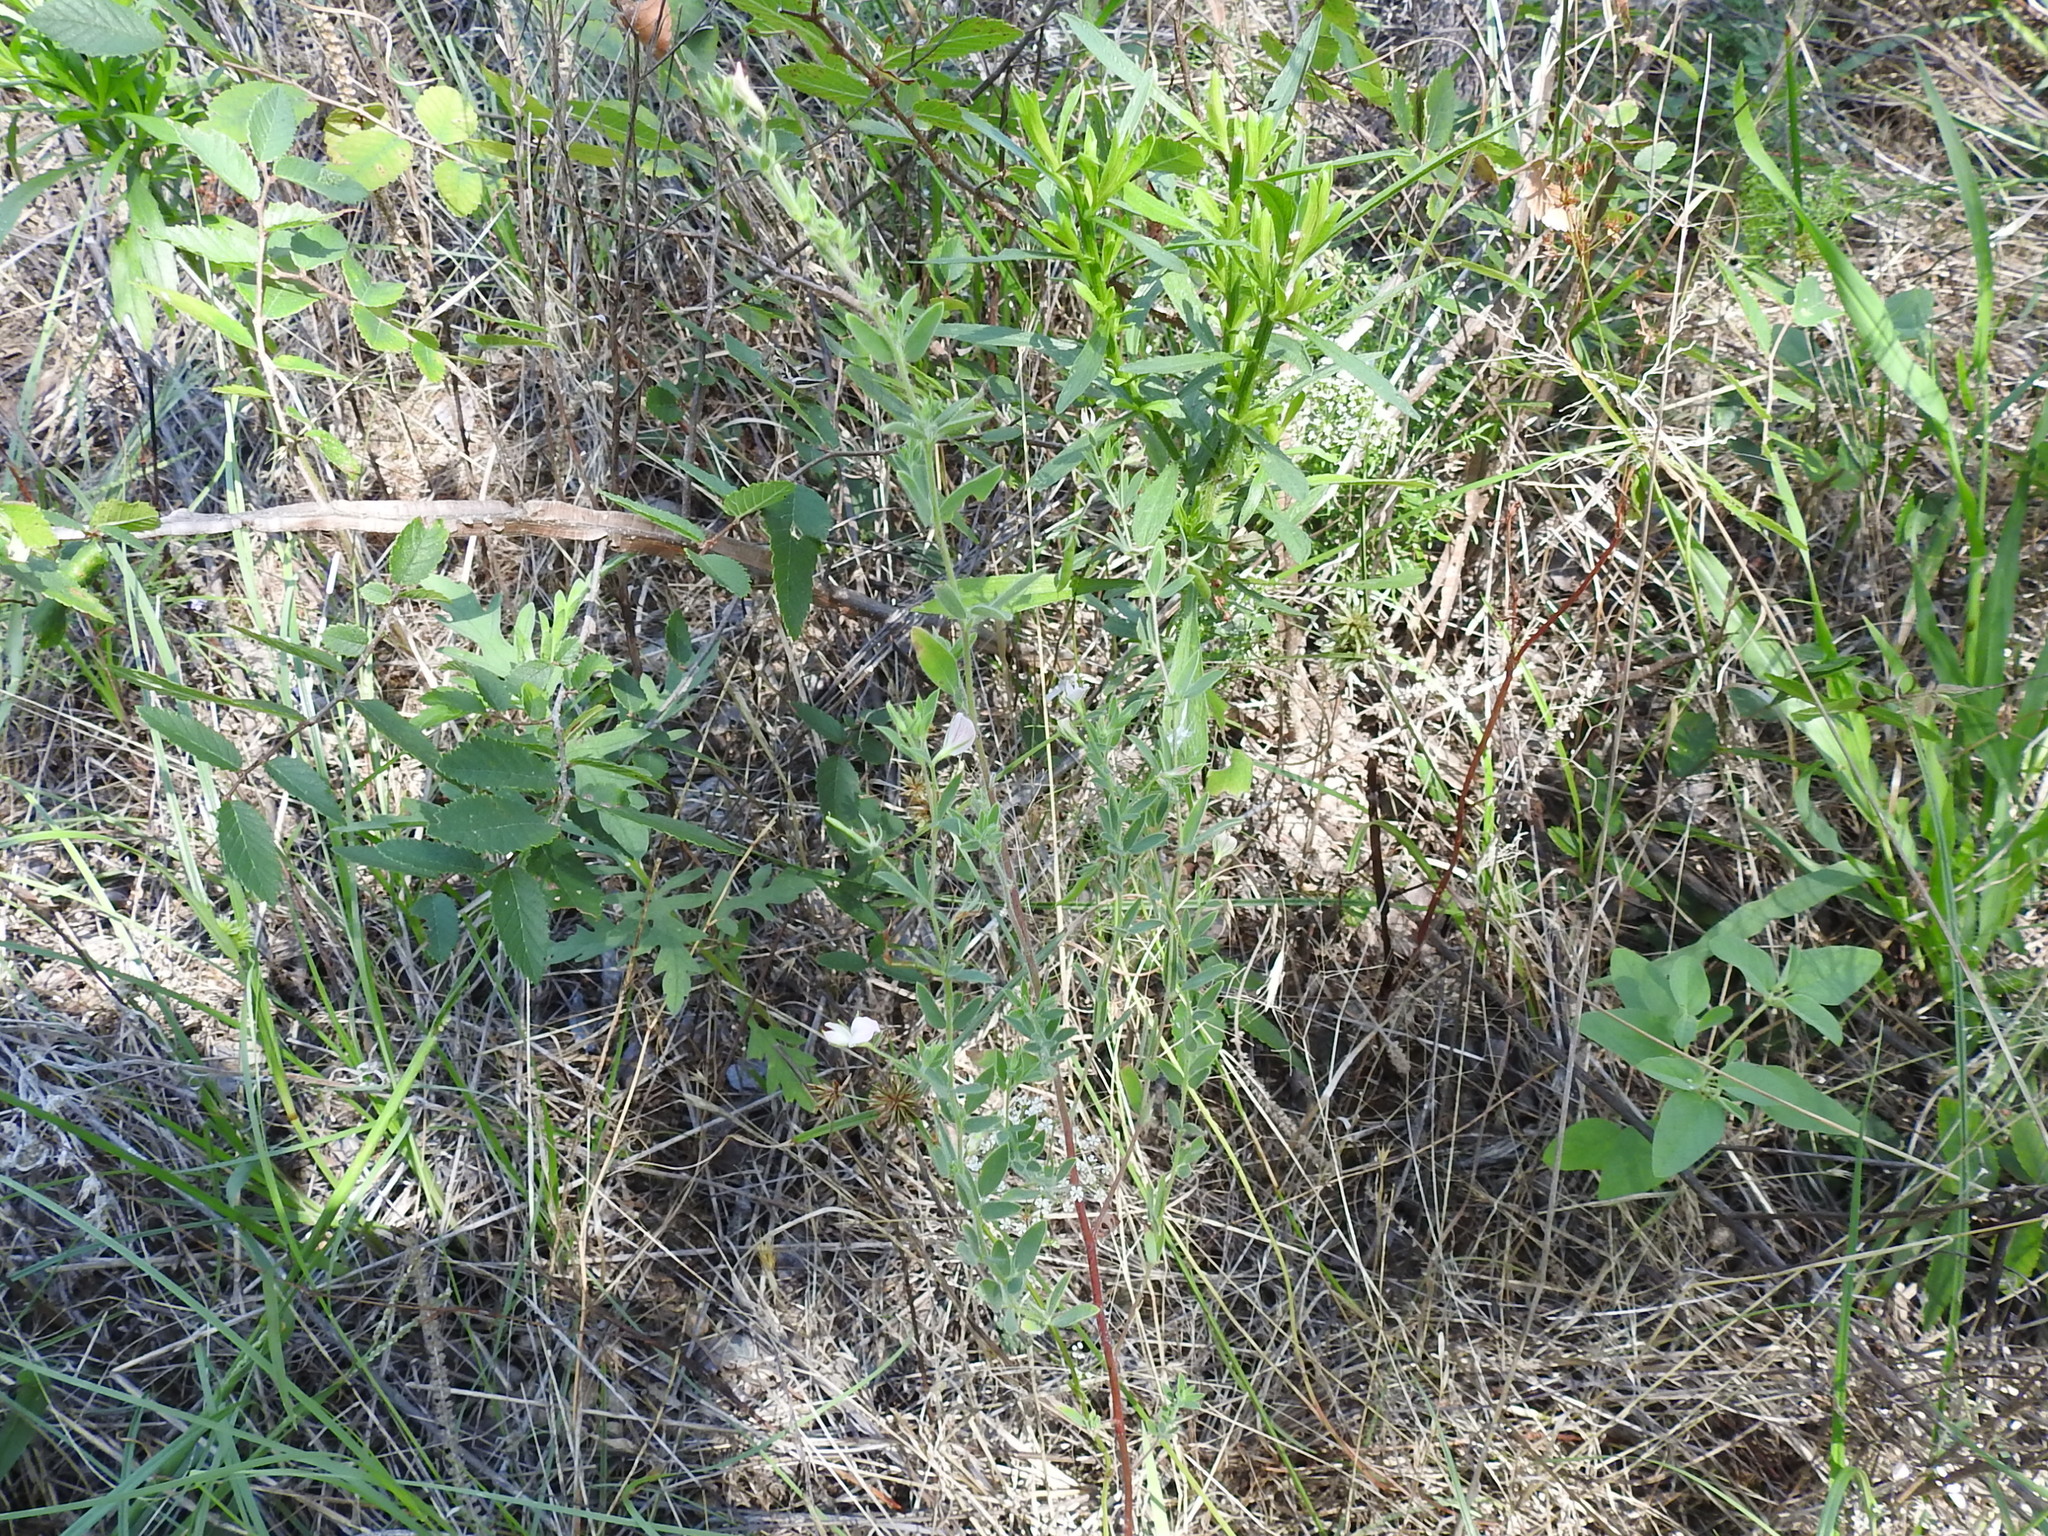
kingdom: Plantae
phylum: Tracheophyta
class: Magnoliopsida
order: Fabales
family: Fabaceae
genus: Acmispon
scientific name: Acmispon americanus
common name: American bird's-foot trefoil
